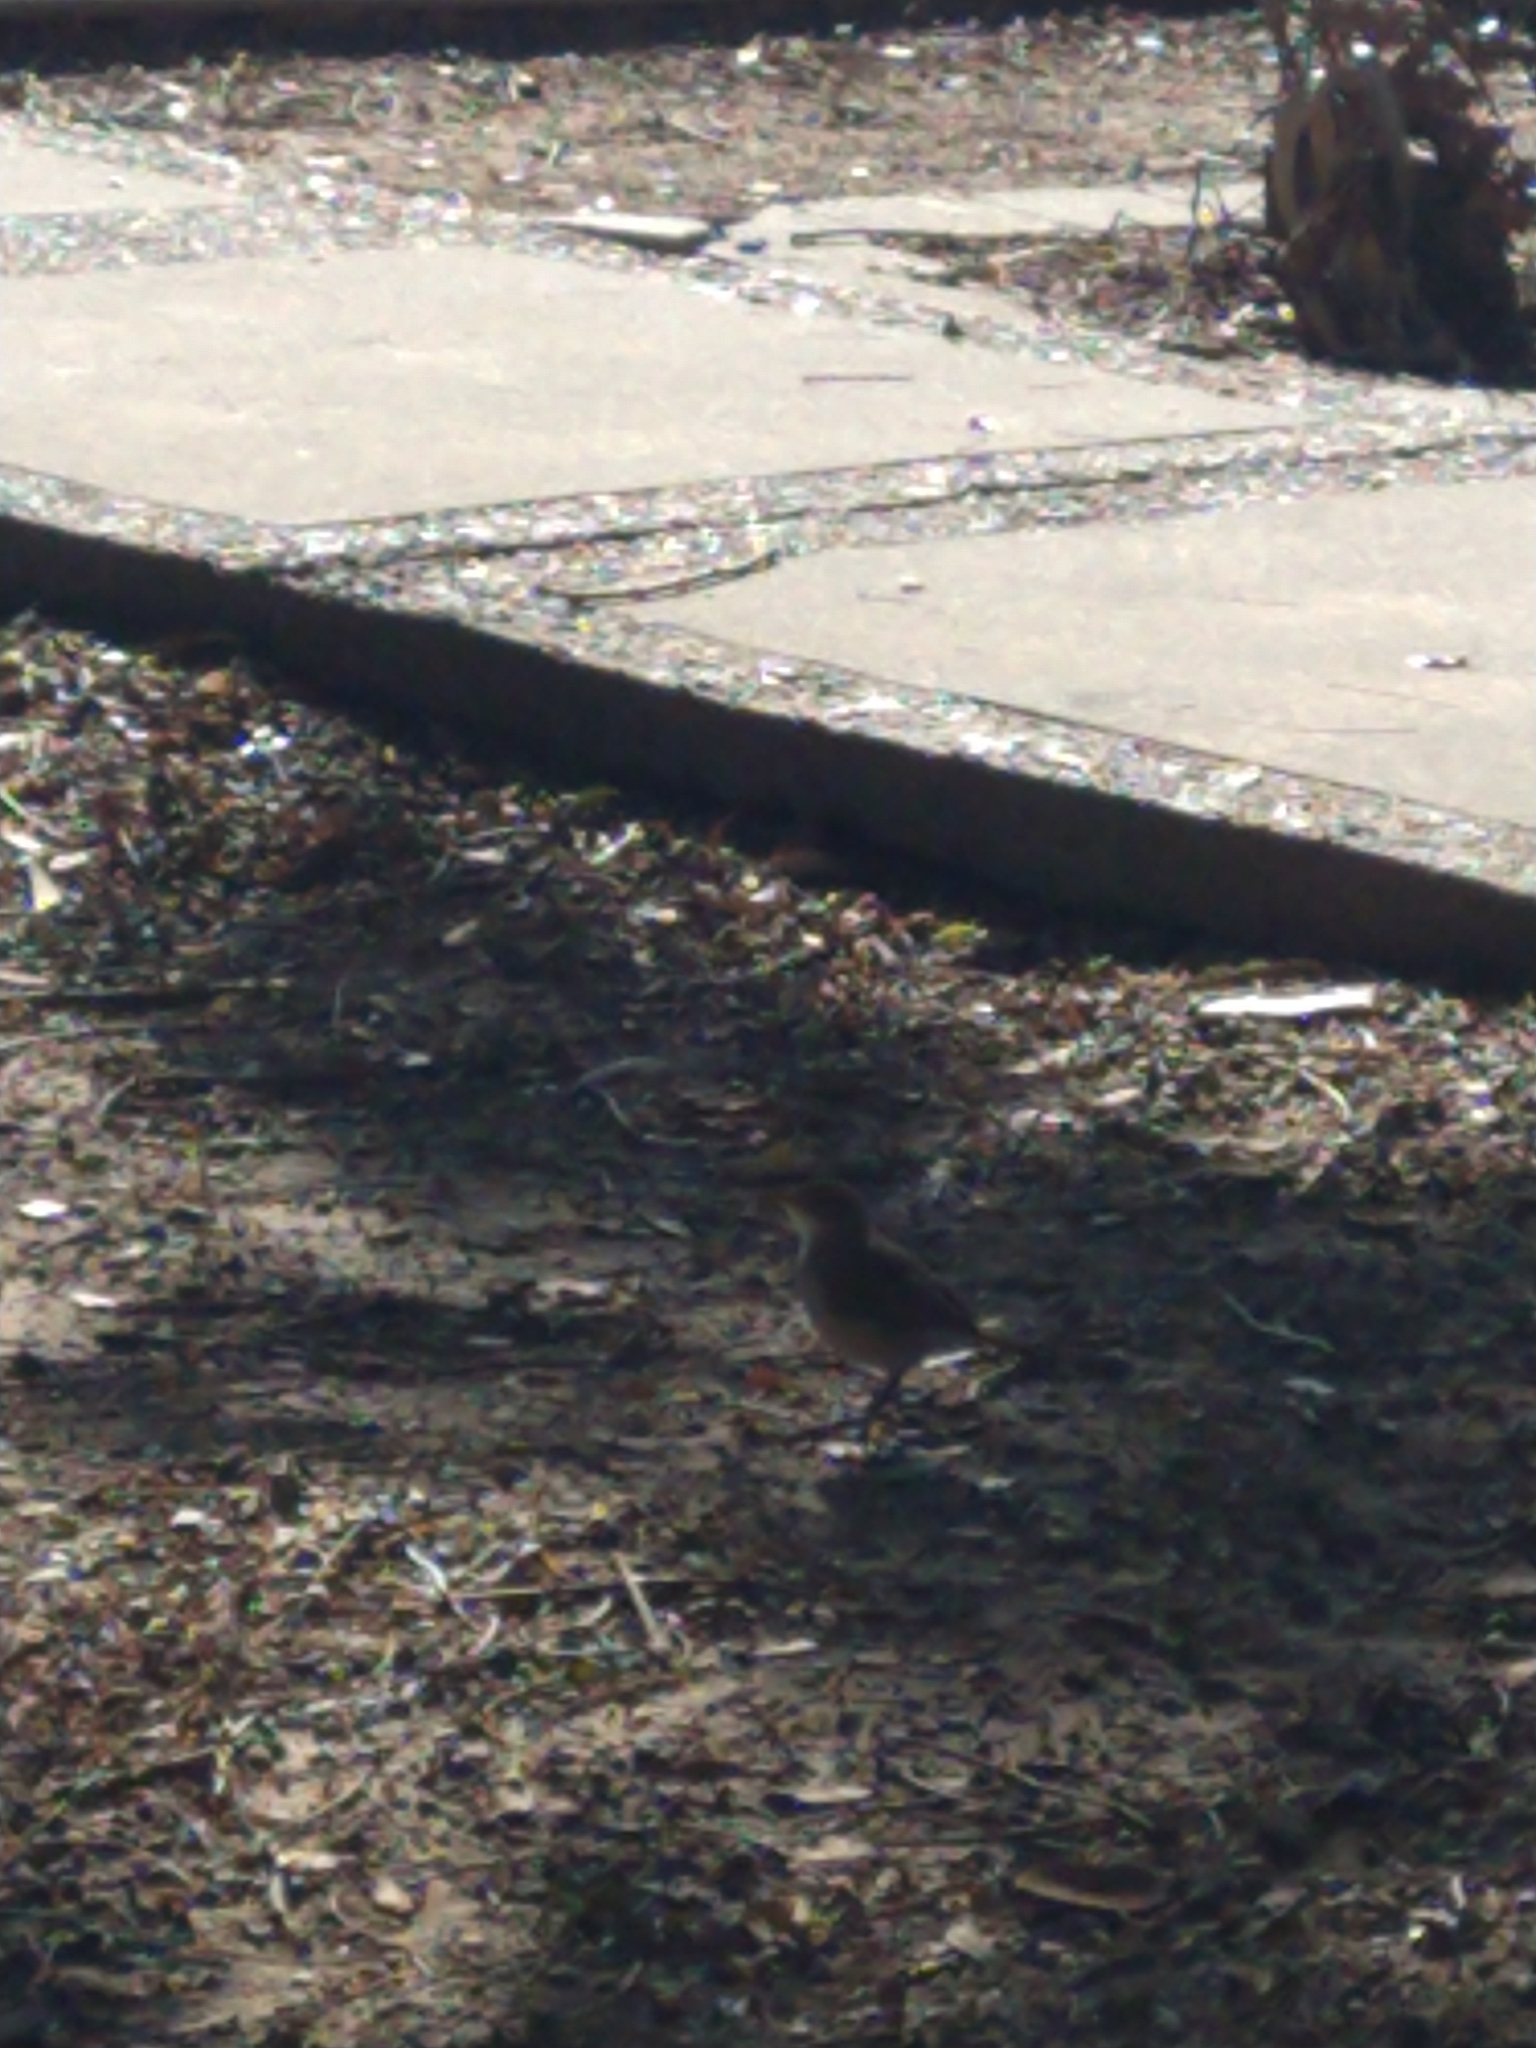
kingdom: Animalia
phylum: Chordata
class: Aves
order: Passeriformes
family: Furnariidae
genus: Furnarius
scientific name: Furnarius rufus
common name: Rufous hornero
